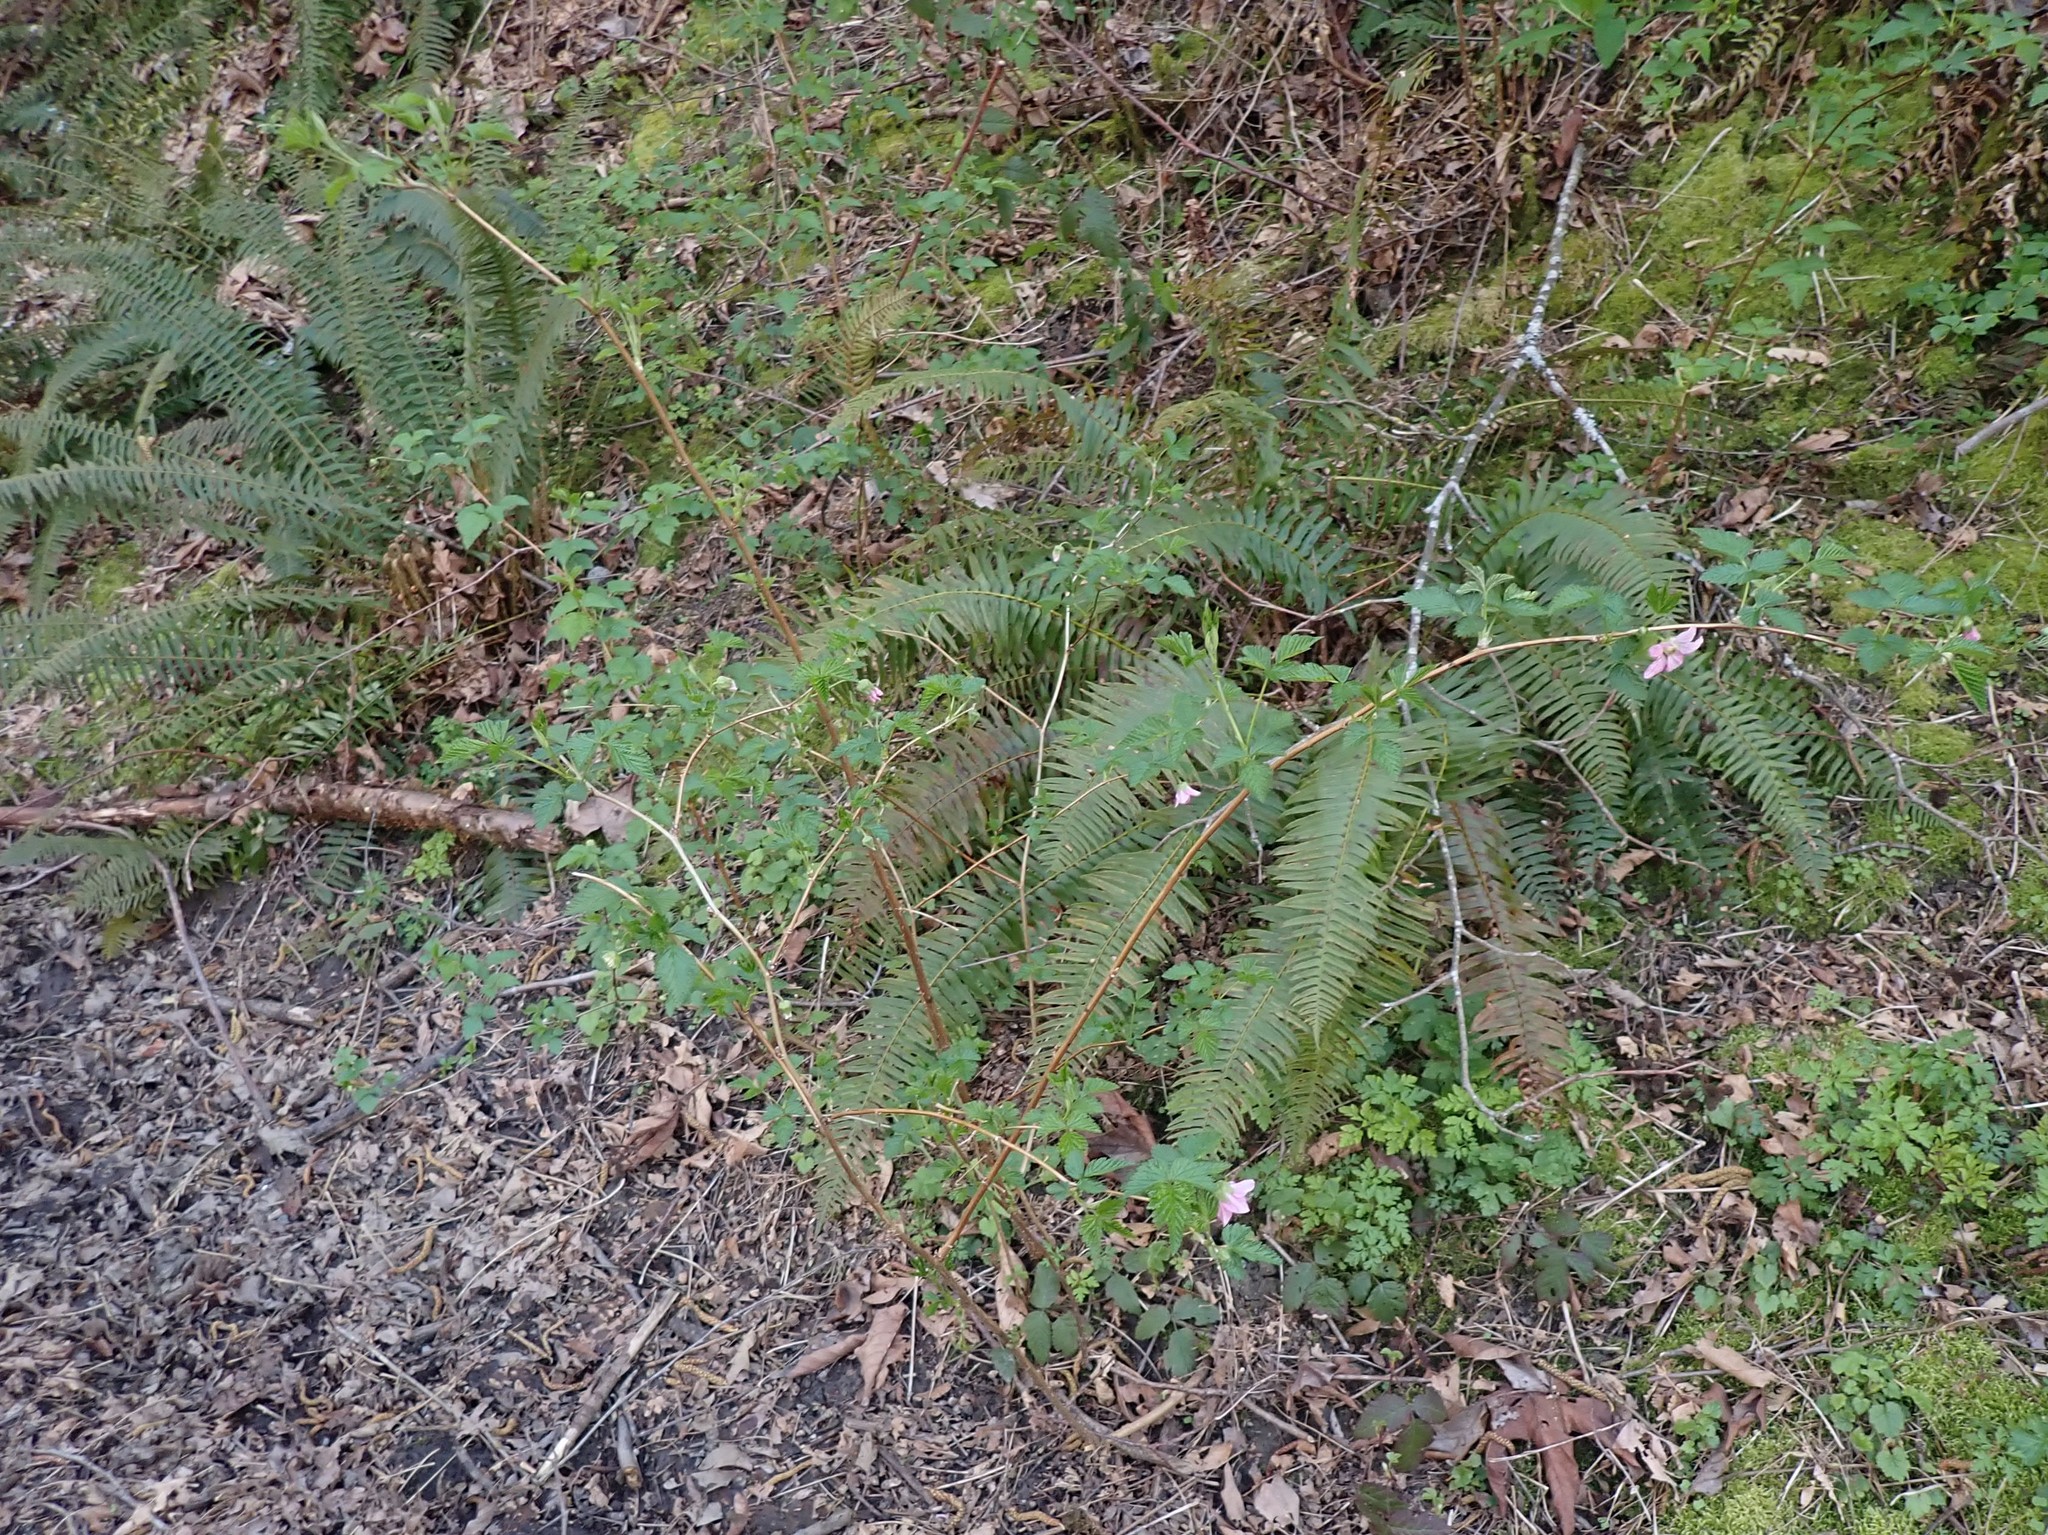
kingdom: Plantae
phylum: Tracheophyta
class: Magnoliopsida
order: Rosales
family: Rosaceae
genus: Rubus
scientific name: Rubus spectabilis
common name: Salmonberry
